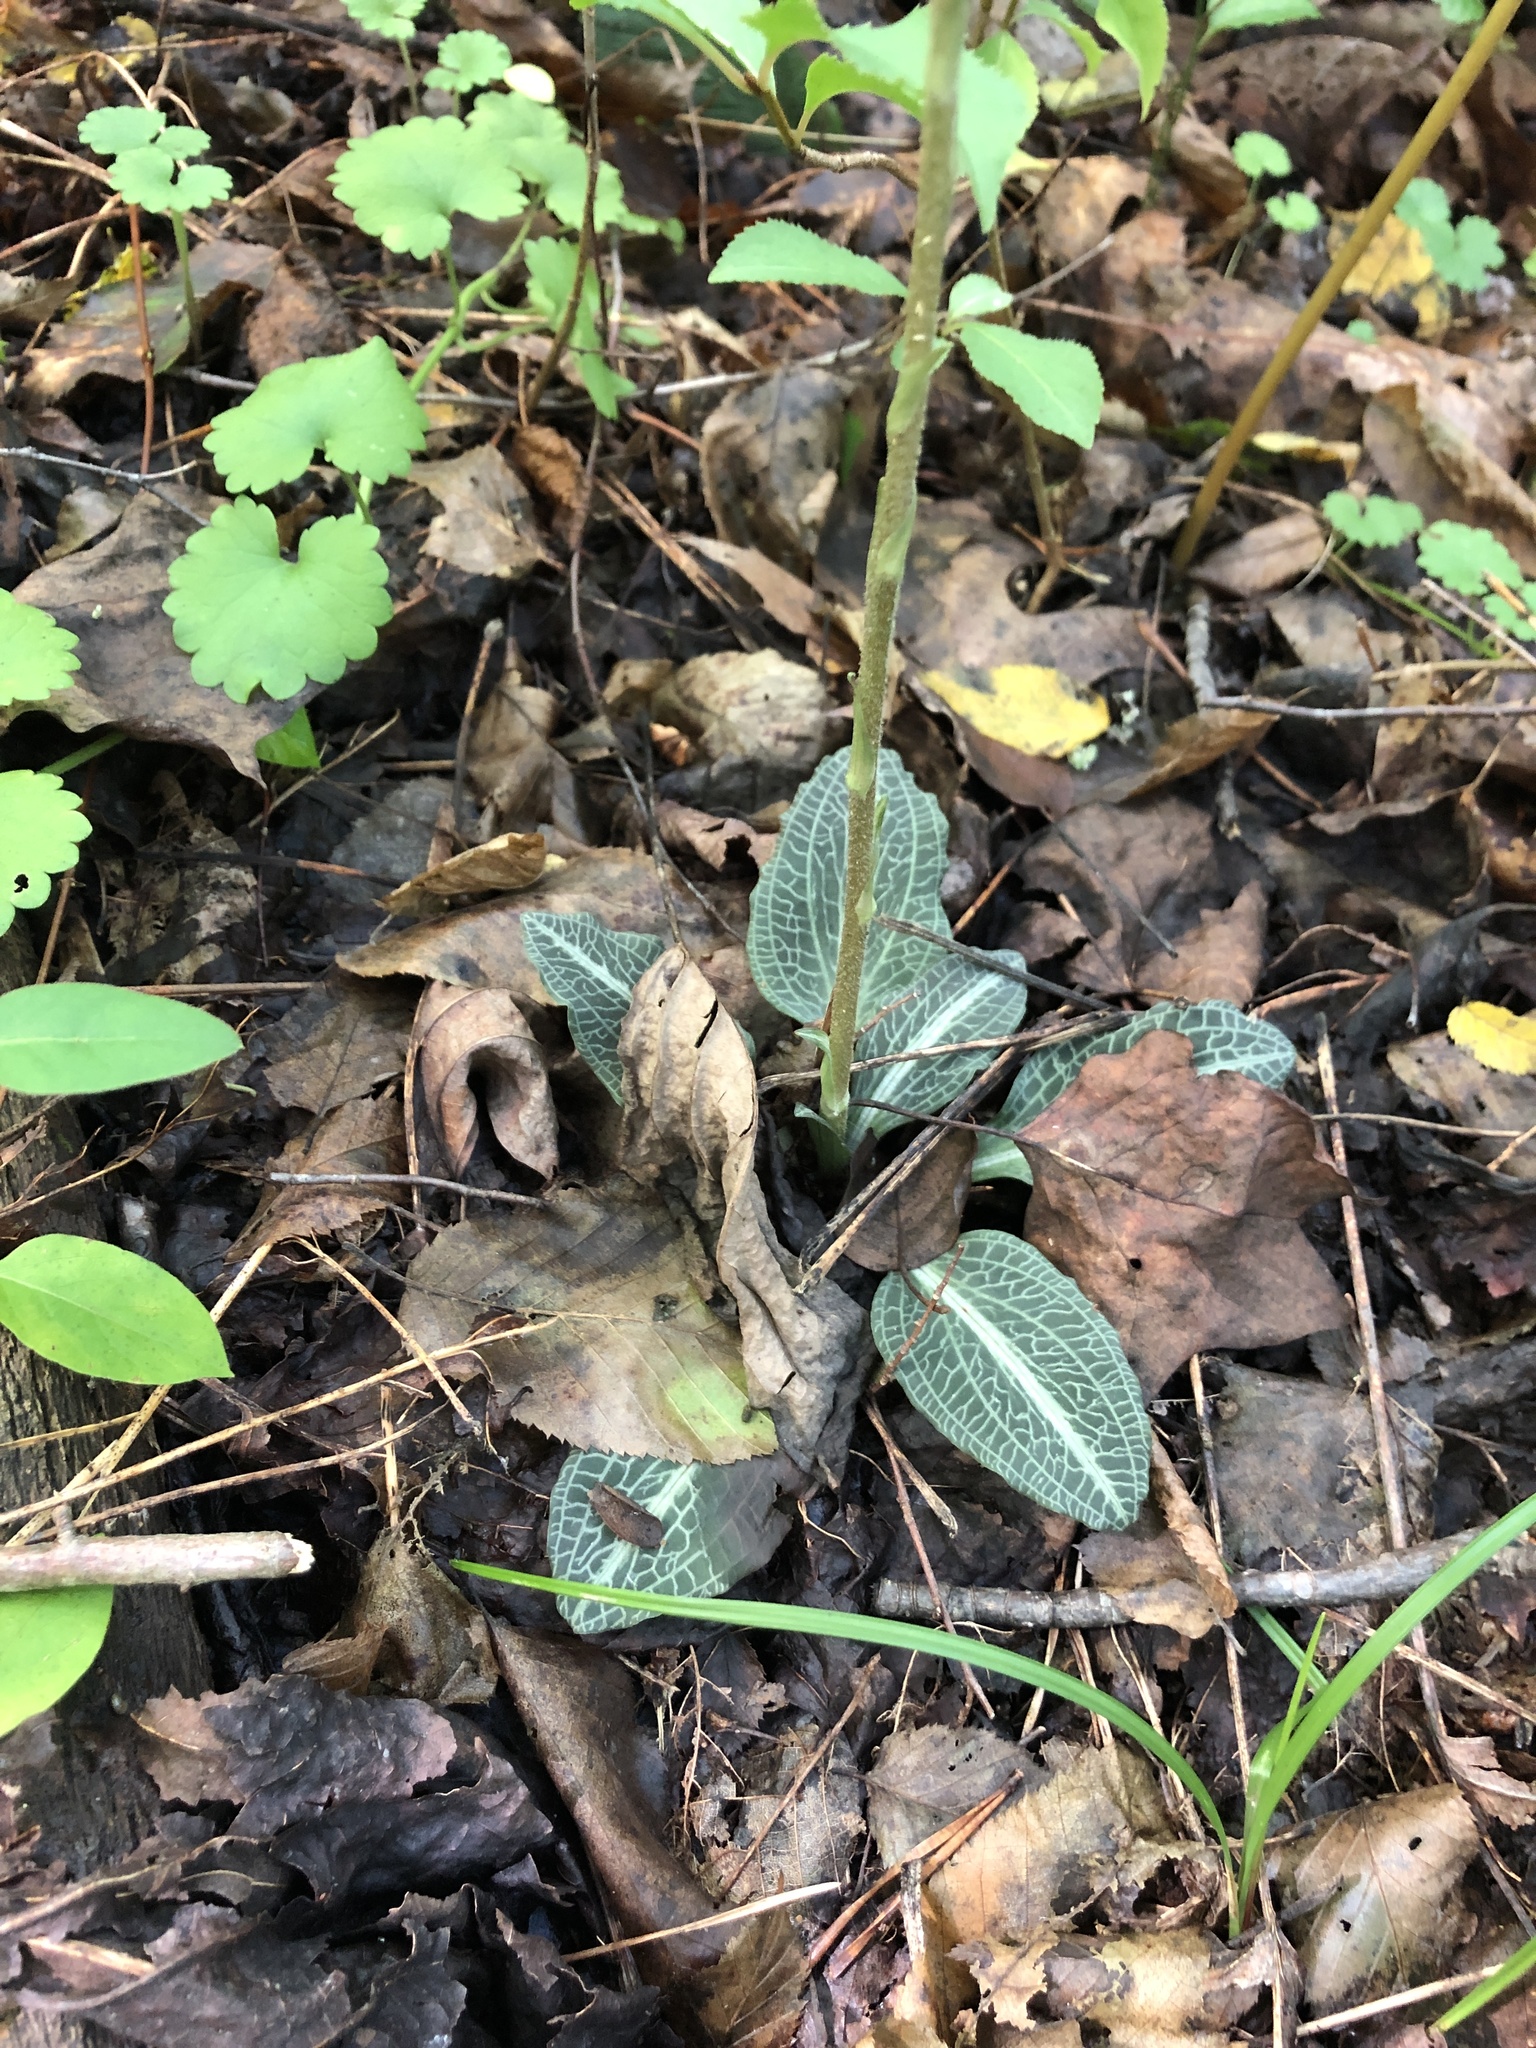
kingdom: Plantae
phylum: Tracheophyta
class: Liliopsida
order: Asparagales
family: Orchidaceae
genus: Goodyera
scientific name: Goodyera pubescens
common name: Downy rattlesnake-plantain
